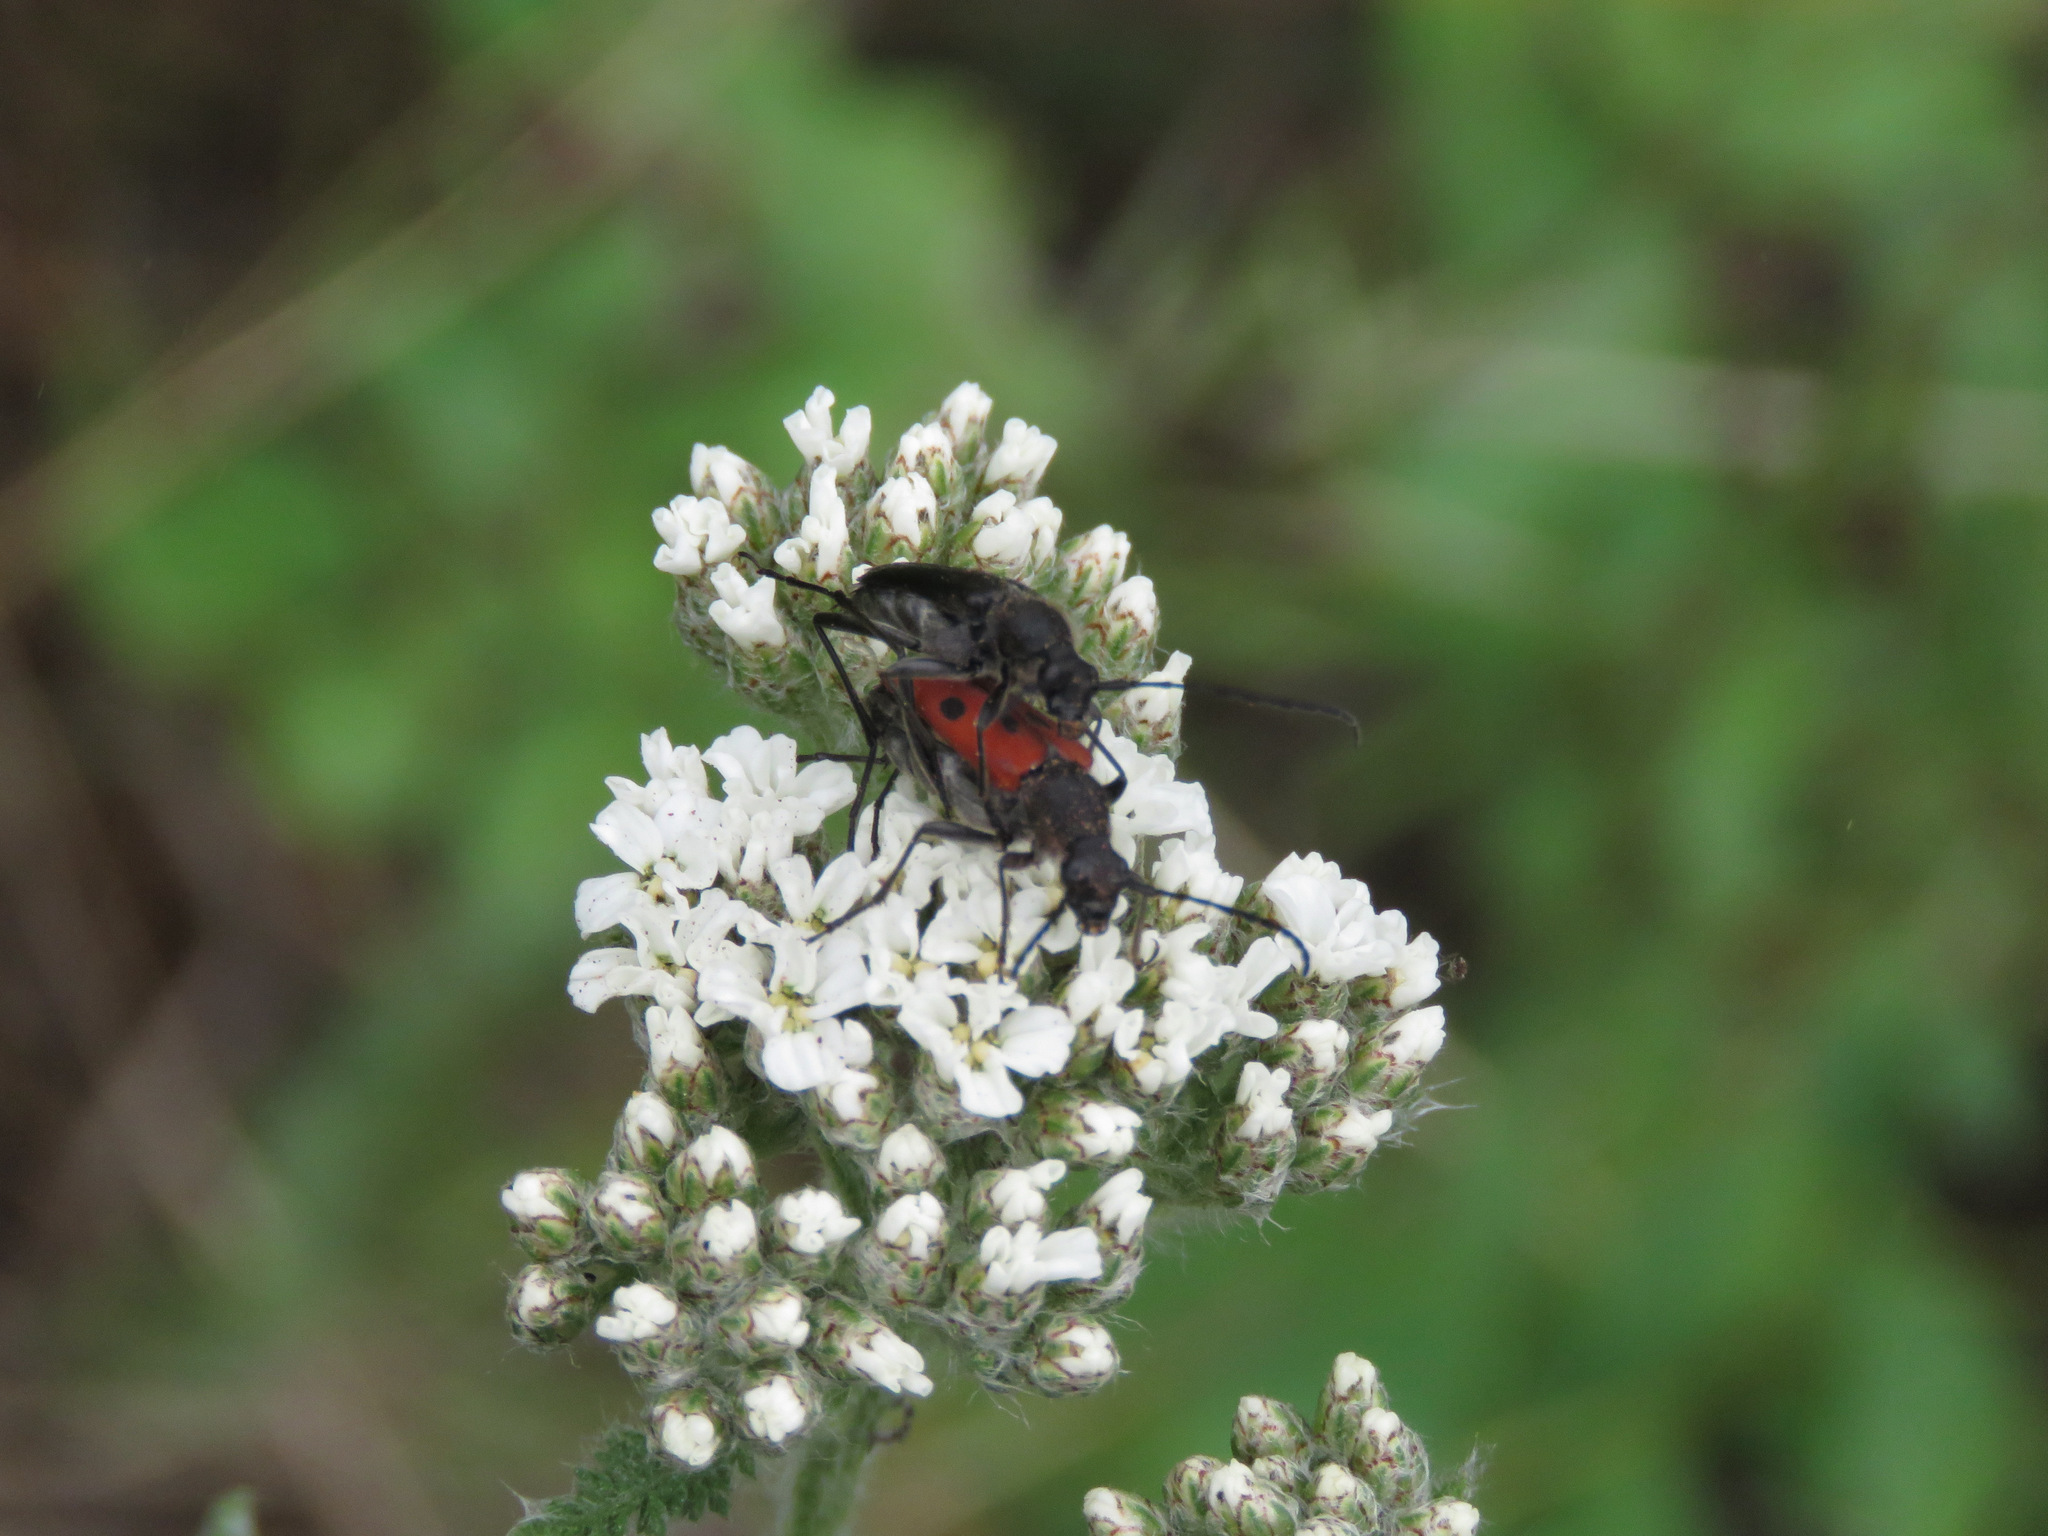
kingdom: Animalia
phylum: Arthropoda
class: Insecta
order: Coleoptera
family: Cerambycidae
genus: Anastrangalia
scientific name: Anastrangalia laetifica
